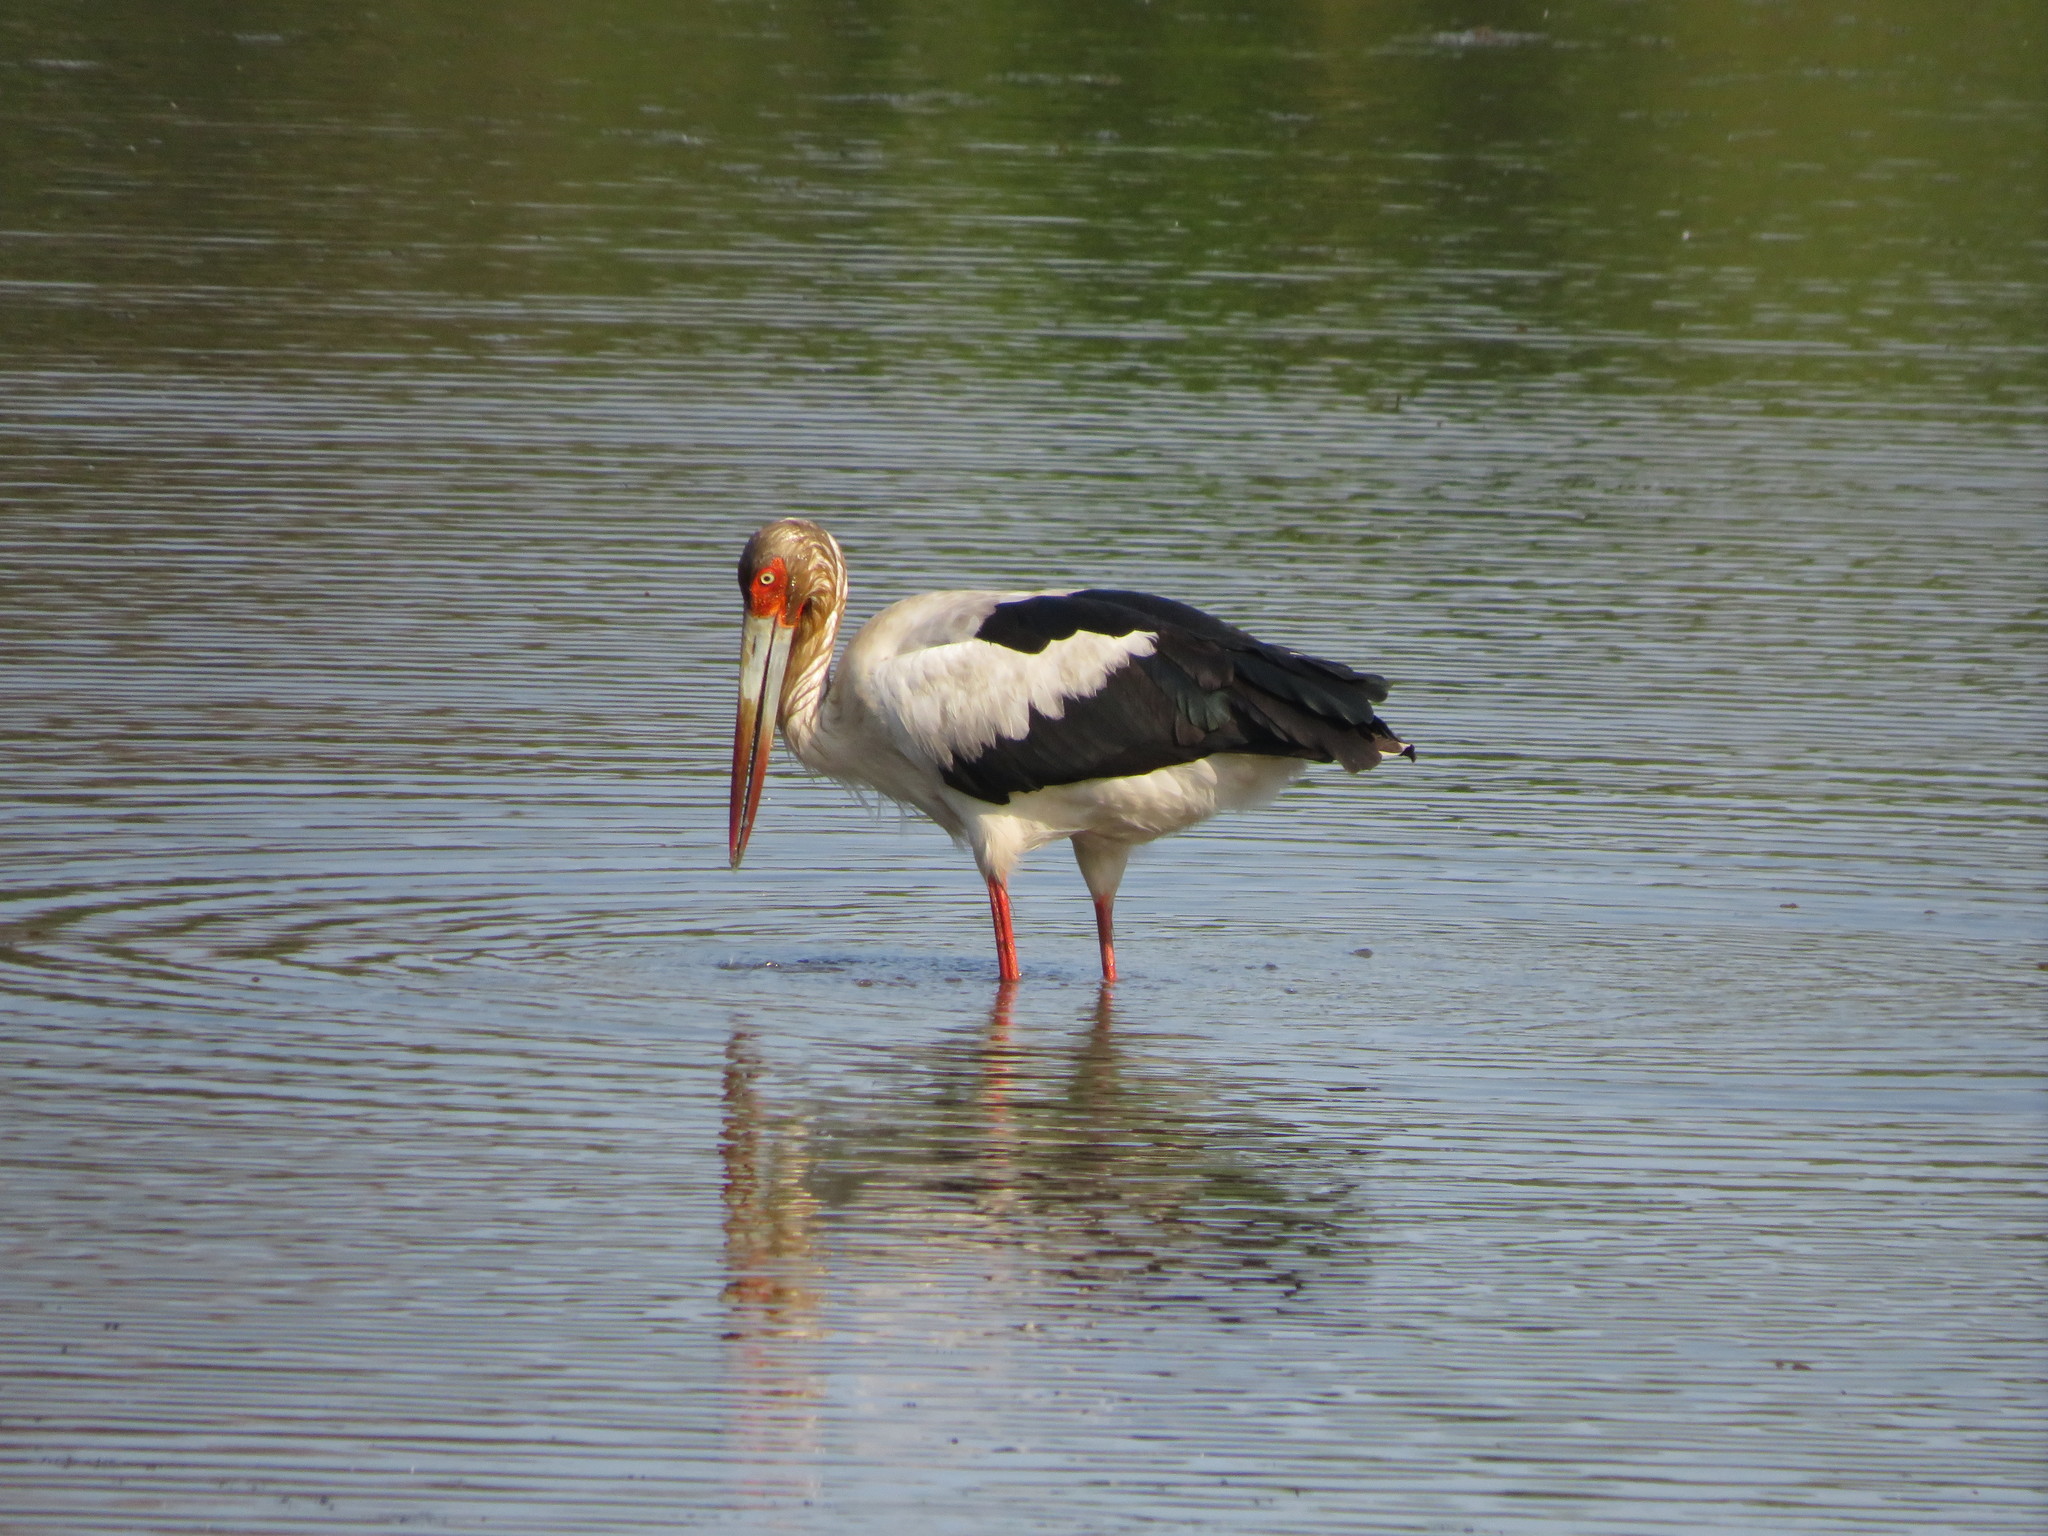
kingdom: Animalia
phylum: Chordata
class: Aves
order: Ciconiiformes
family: Ciconiidae
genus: Ciconia
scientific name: Ciconia maguari
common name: Maguari stork
